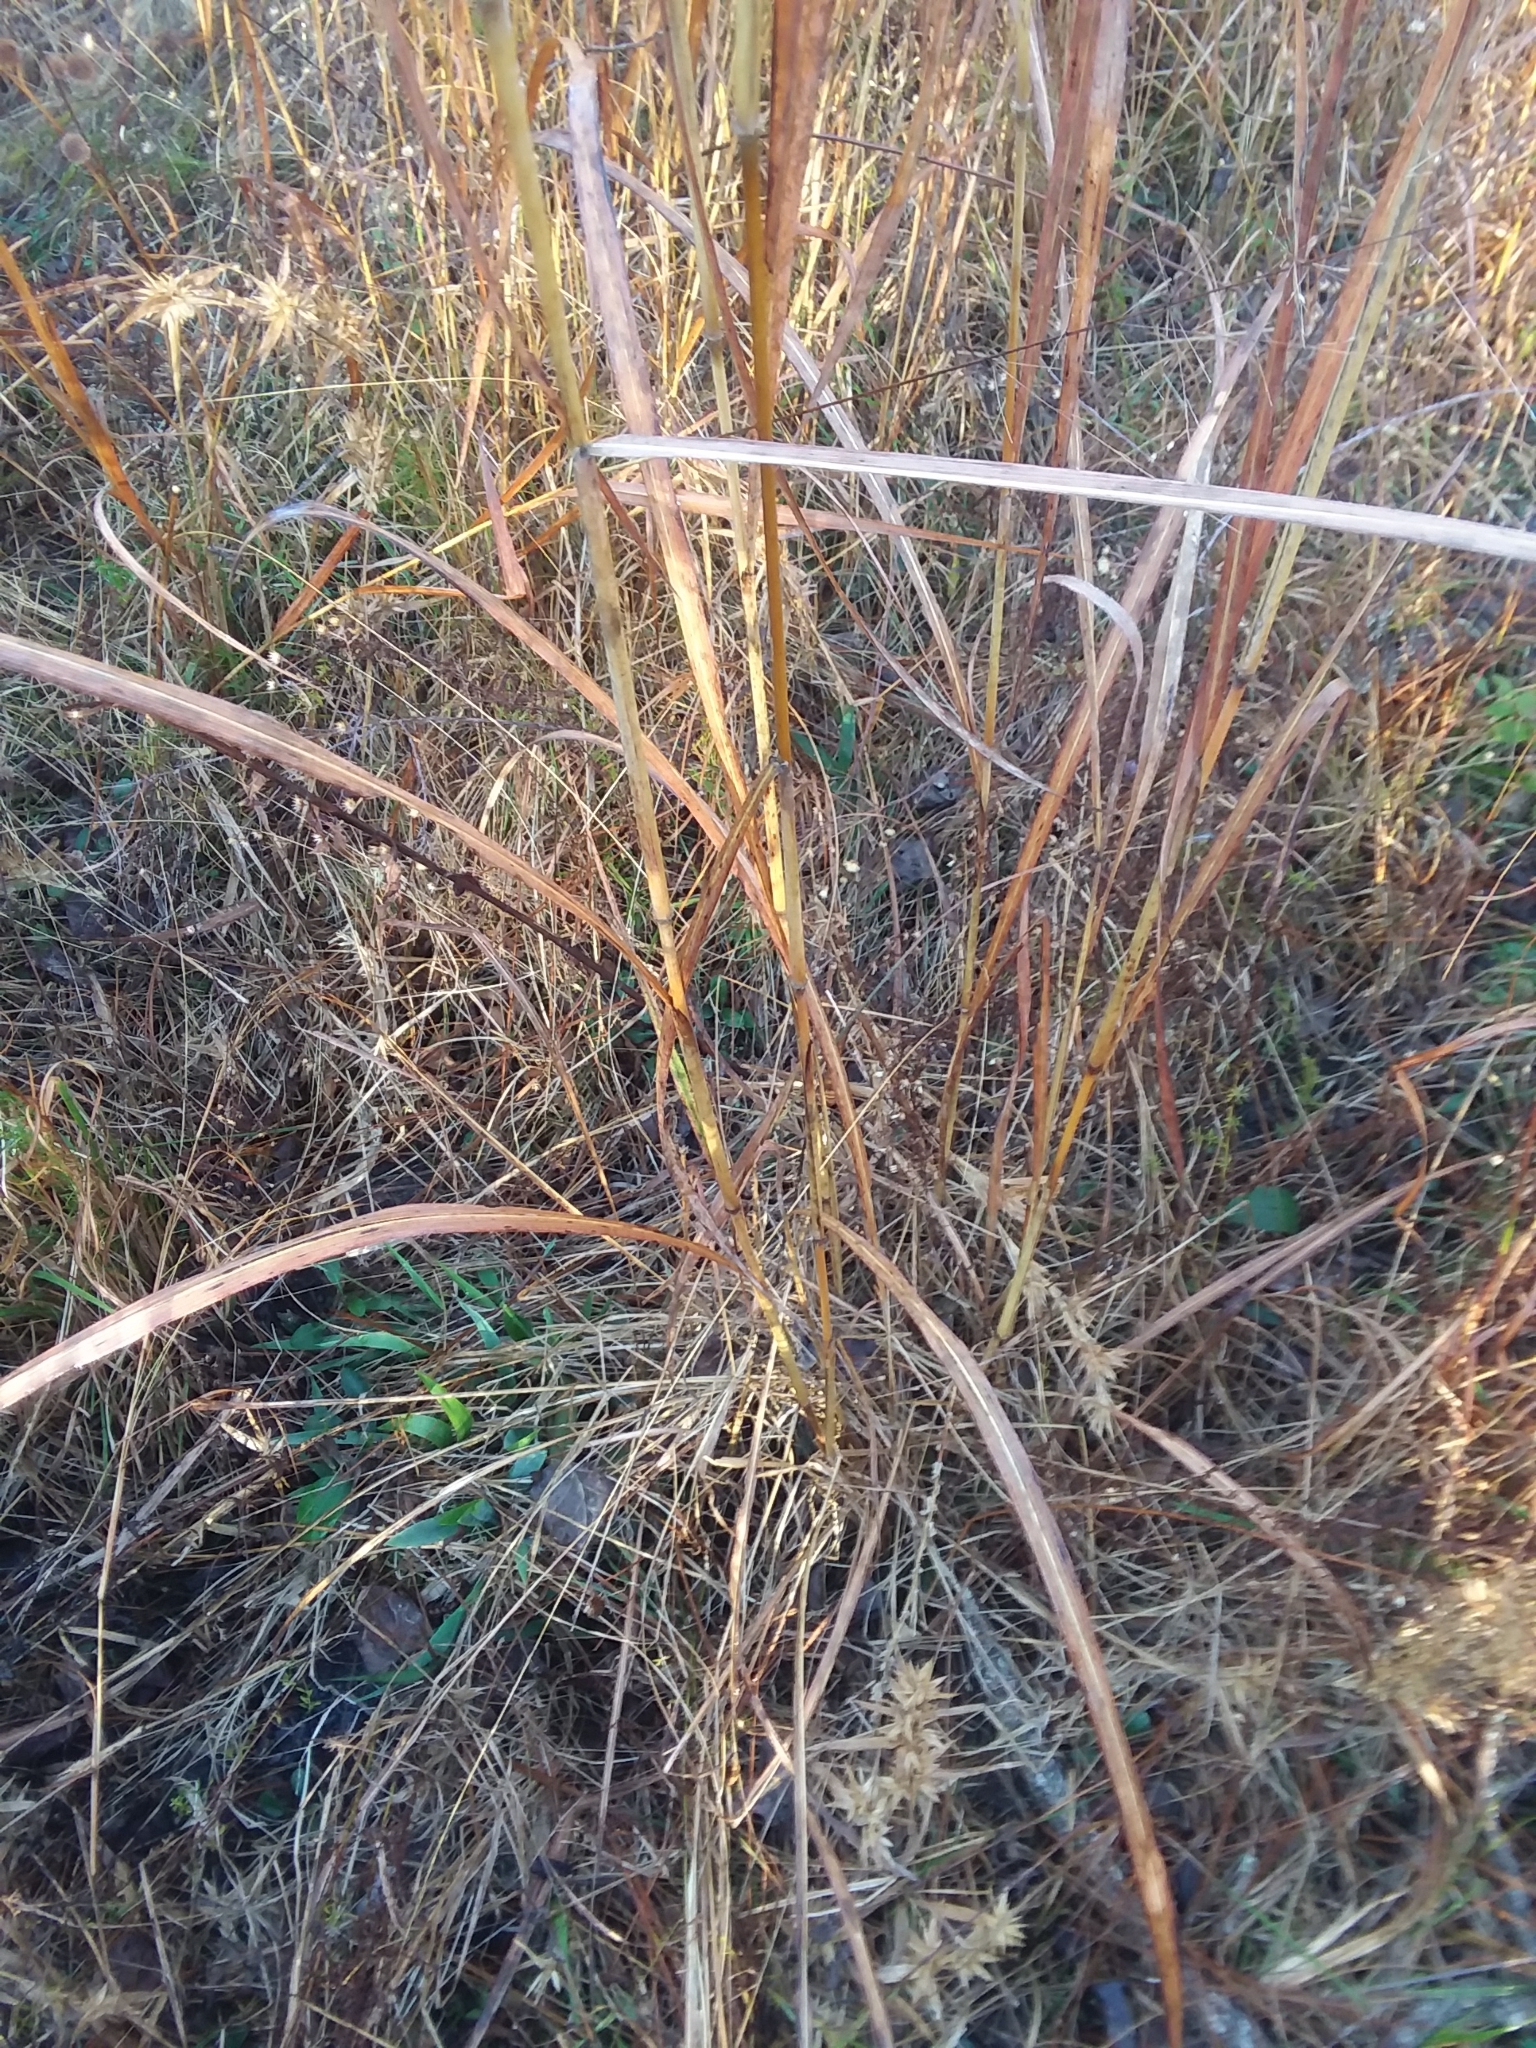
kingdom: Plantae
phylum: Tracheophyta
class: Liliopsida
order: Poales
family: Poaceae
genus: Erianthus
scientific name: Erianthus giganteus
